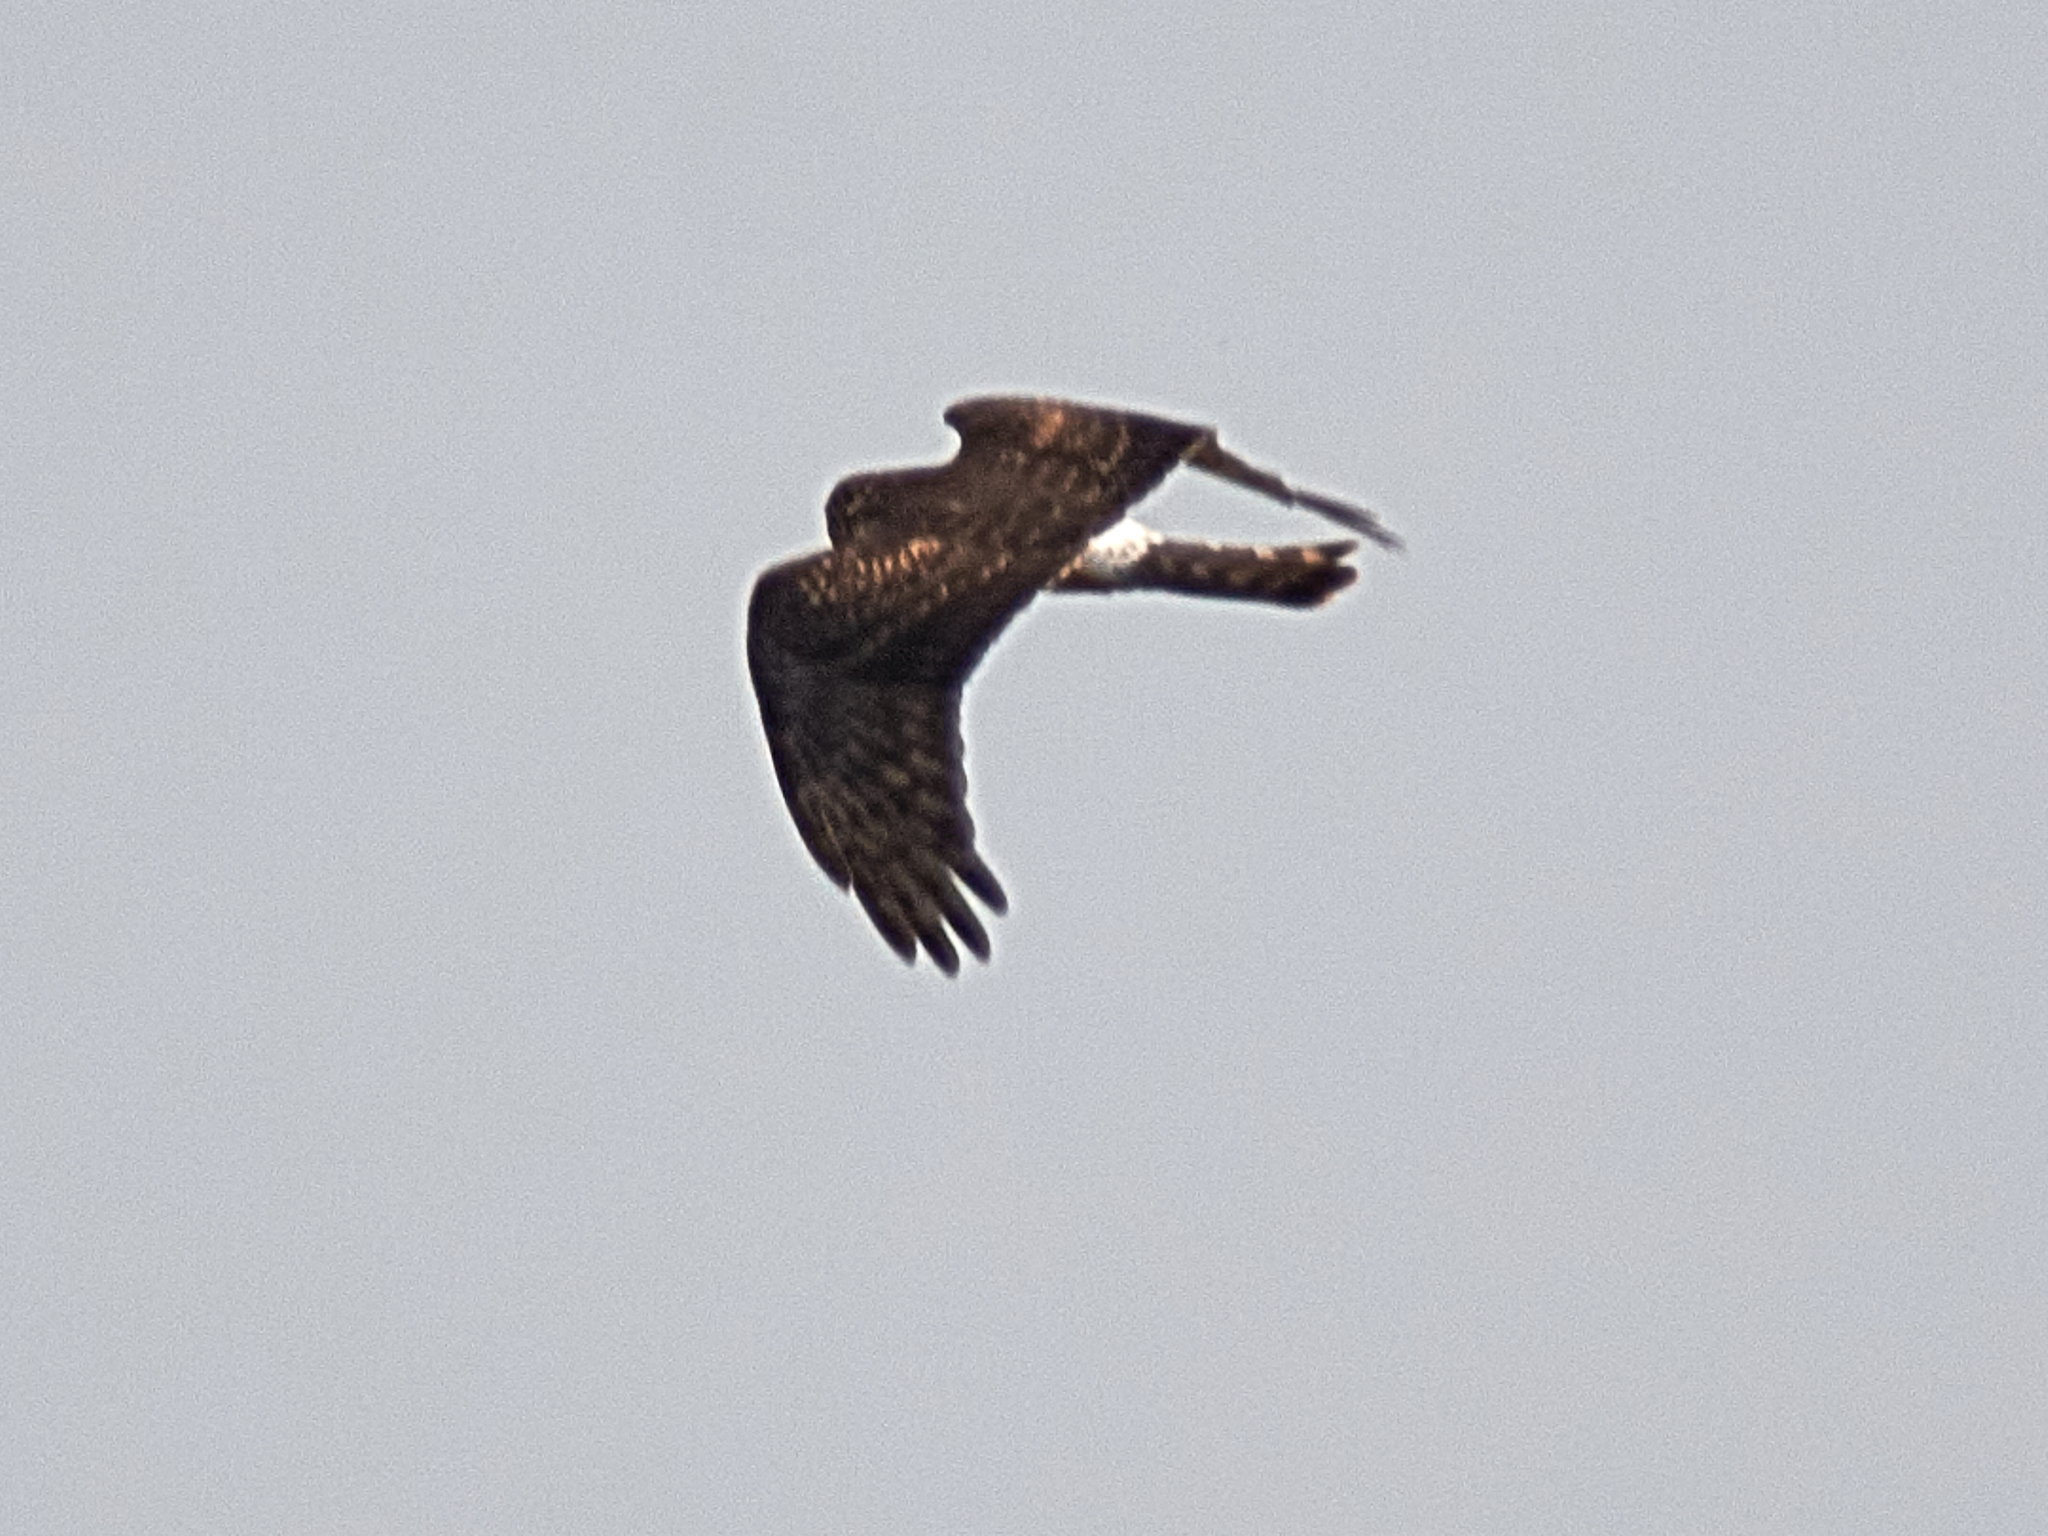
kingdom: Animalia
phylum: Chordata
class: Aves
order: Accipitriformes
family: Accipitridae
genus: Circus
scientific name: Circus cyaneus
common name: Hen harrier
